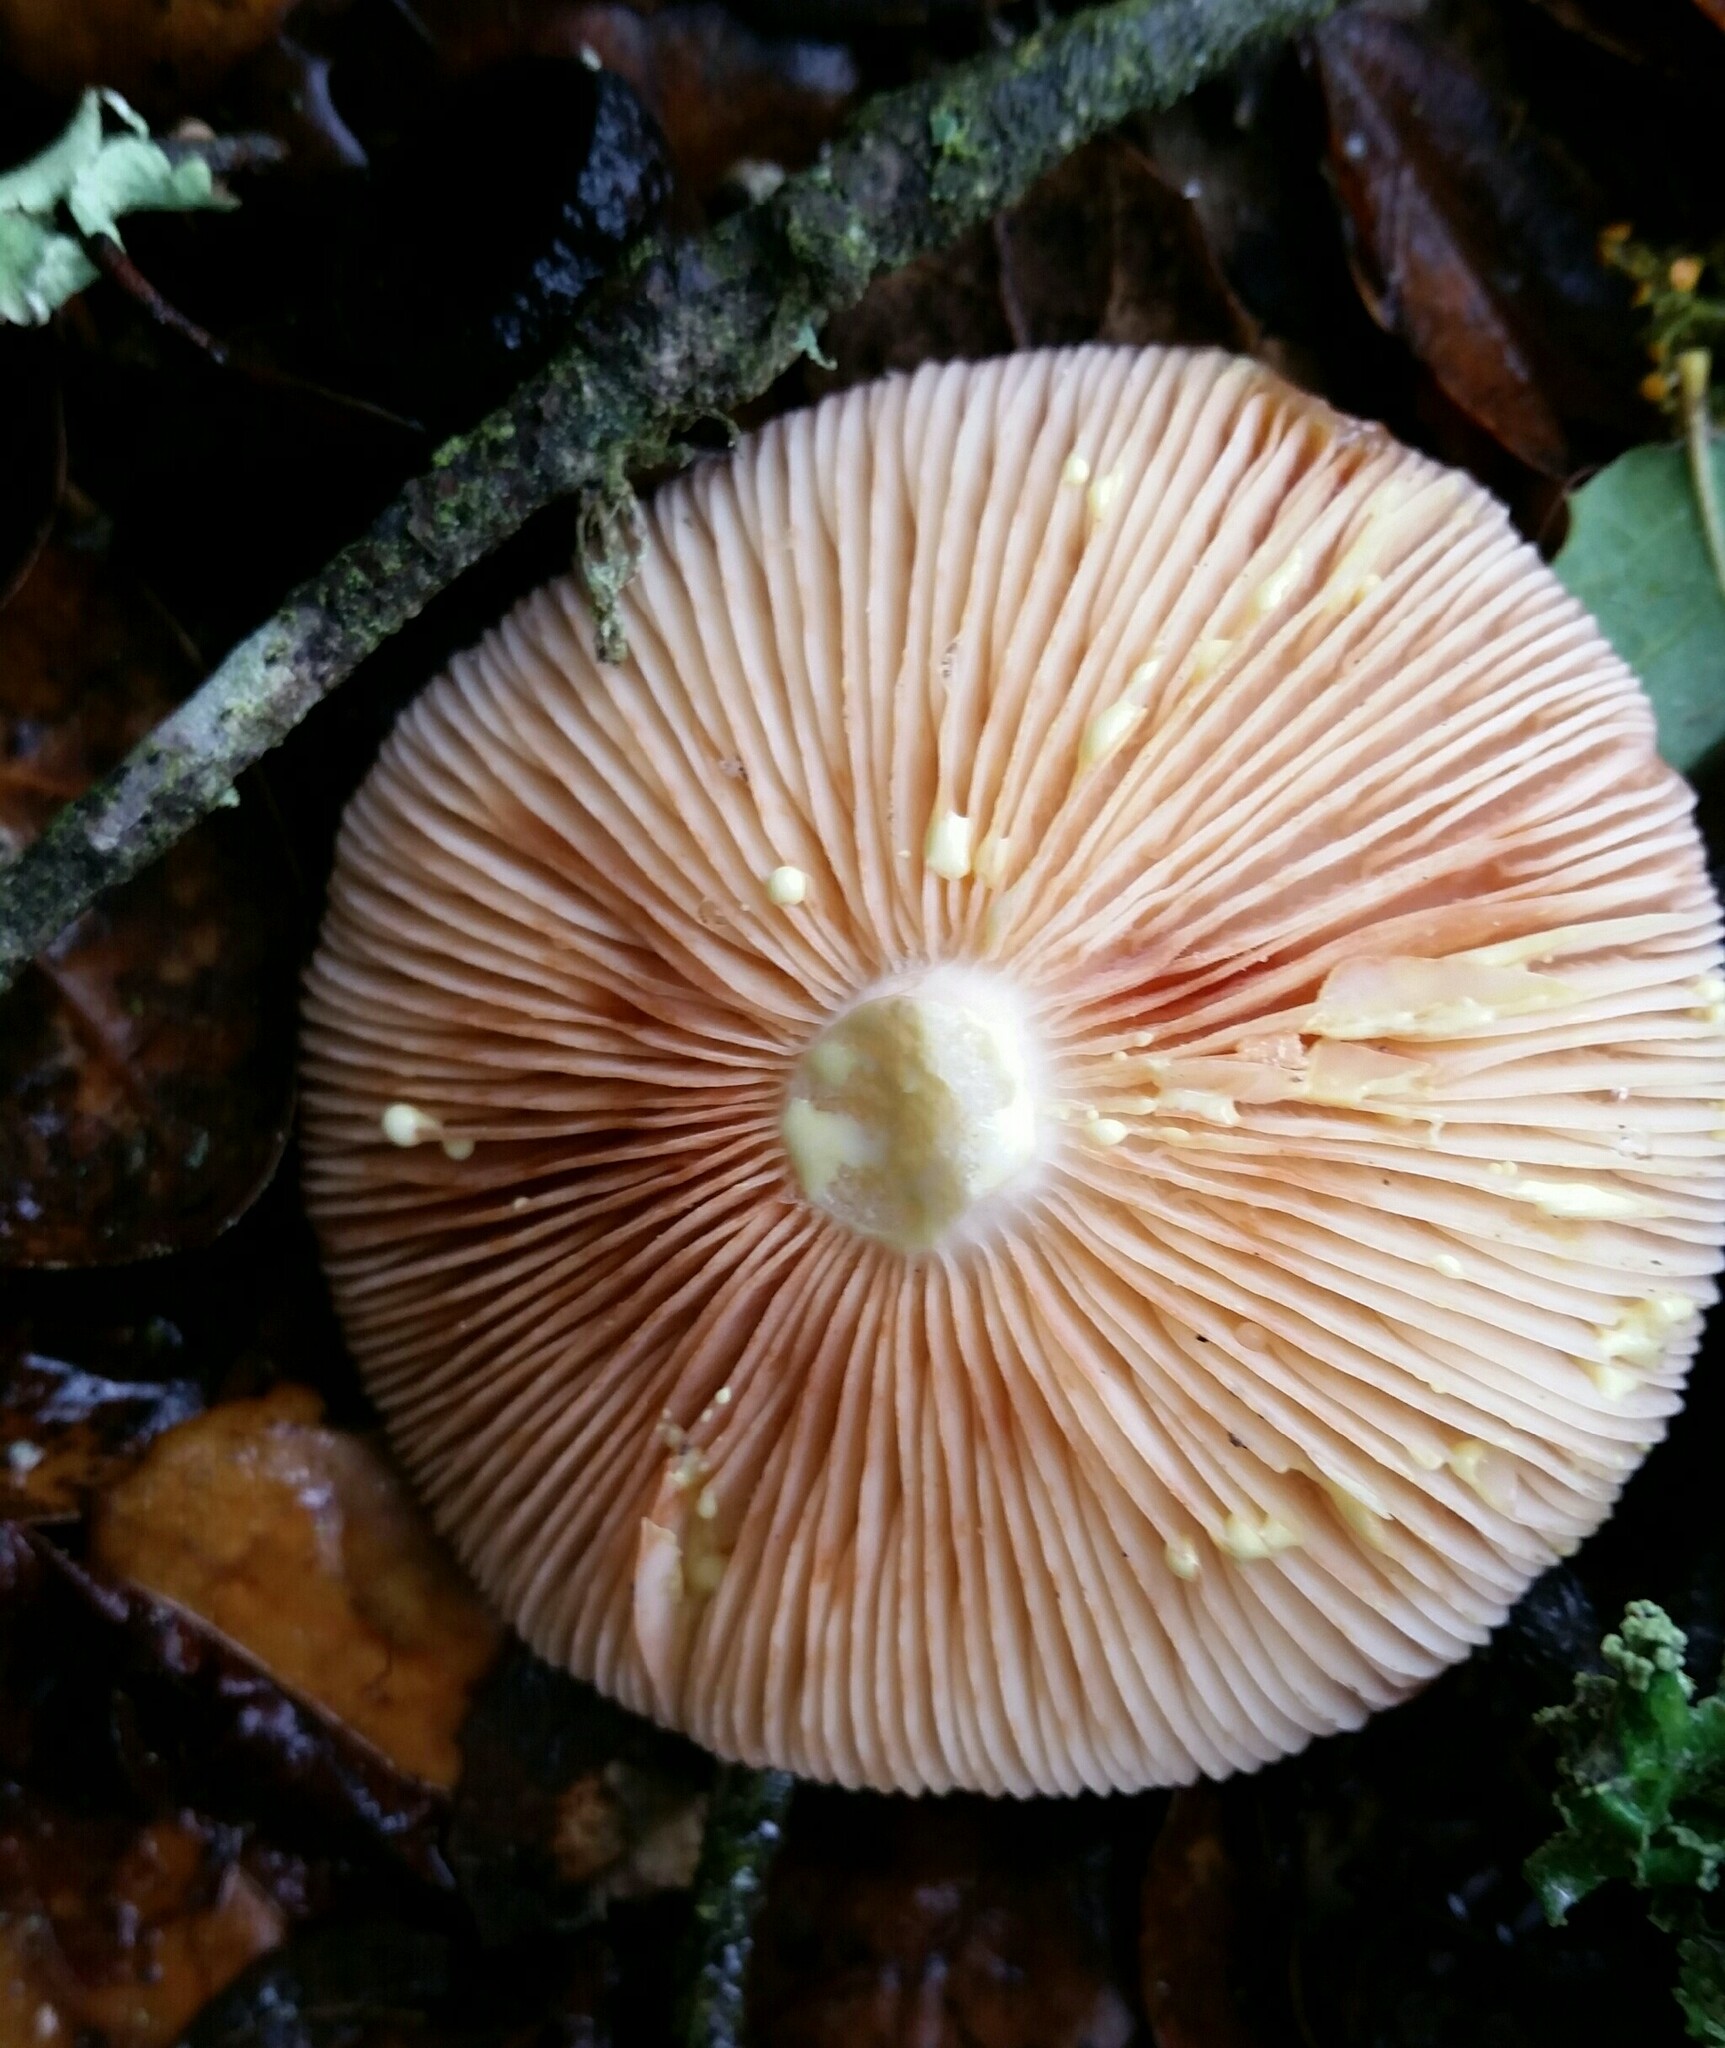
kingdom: Fungi
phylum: Basidiomycota
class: Agaricomycetes
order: Russulales
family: Russulaceae
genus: Lactarius
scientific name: Lactarius xanthogalactus
